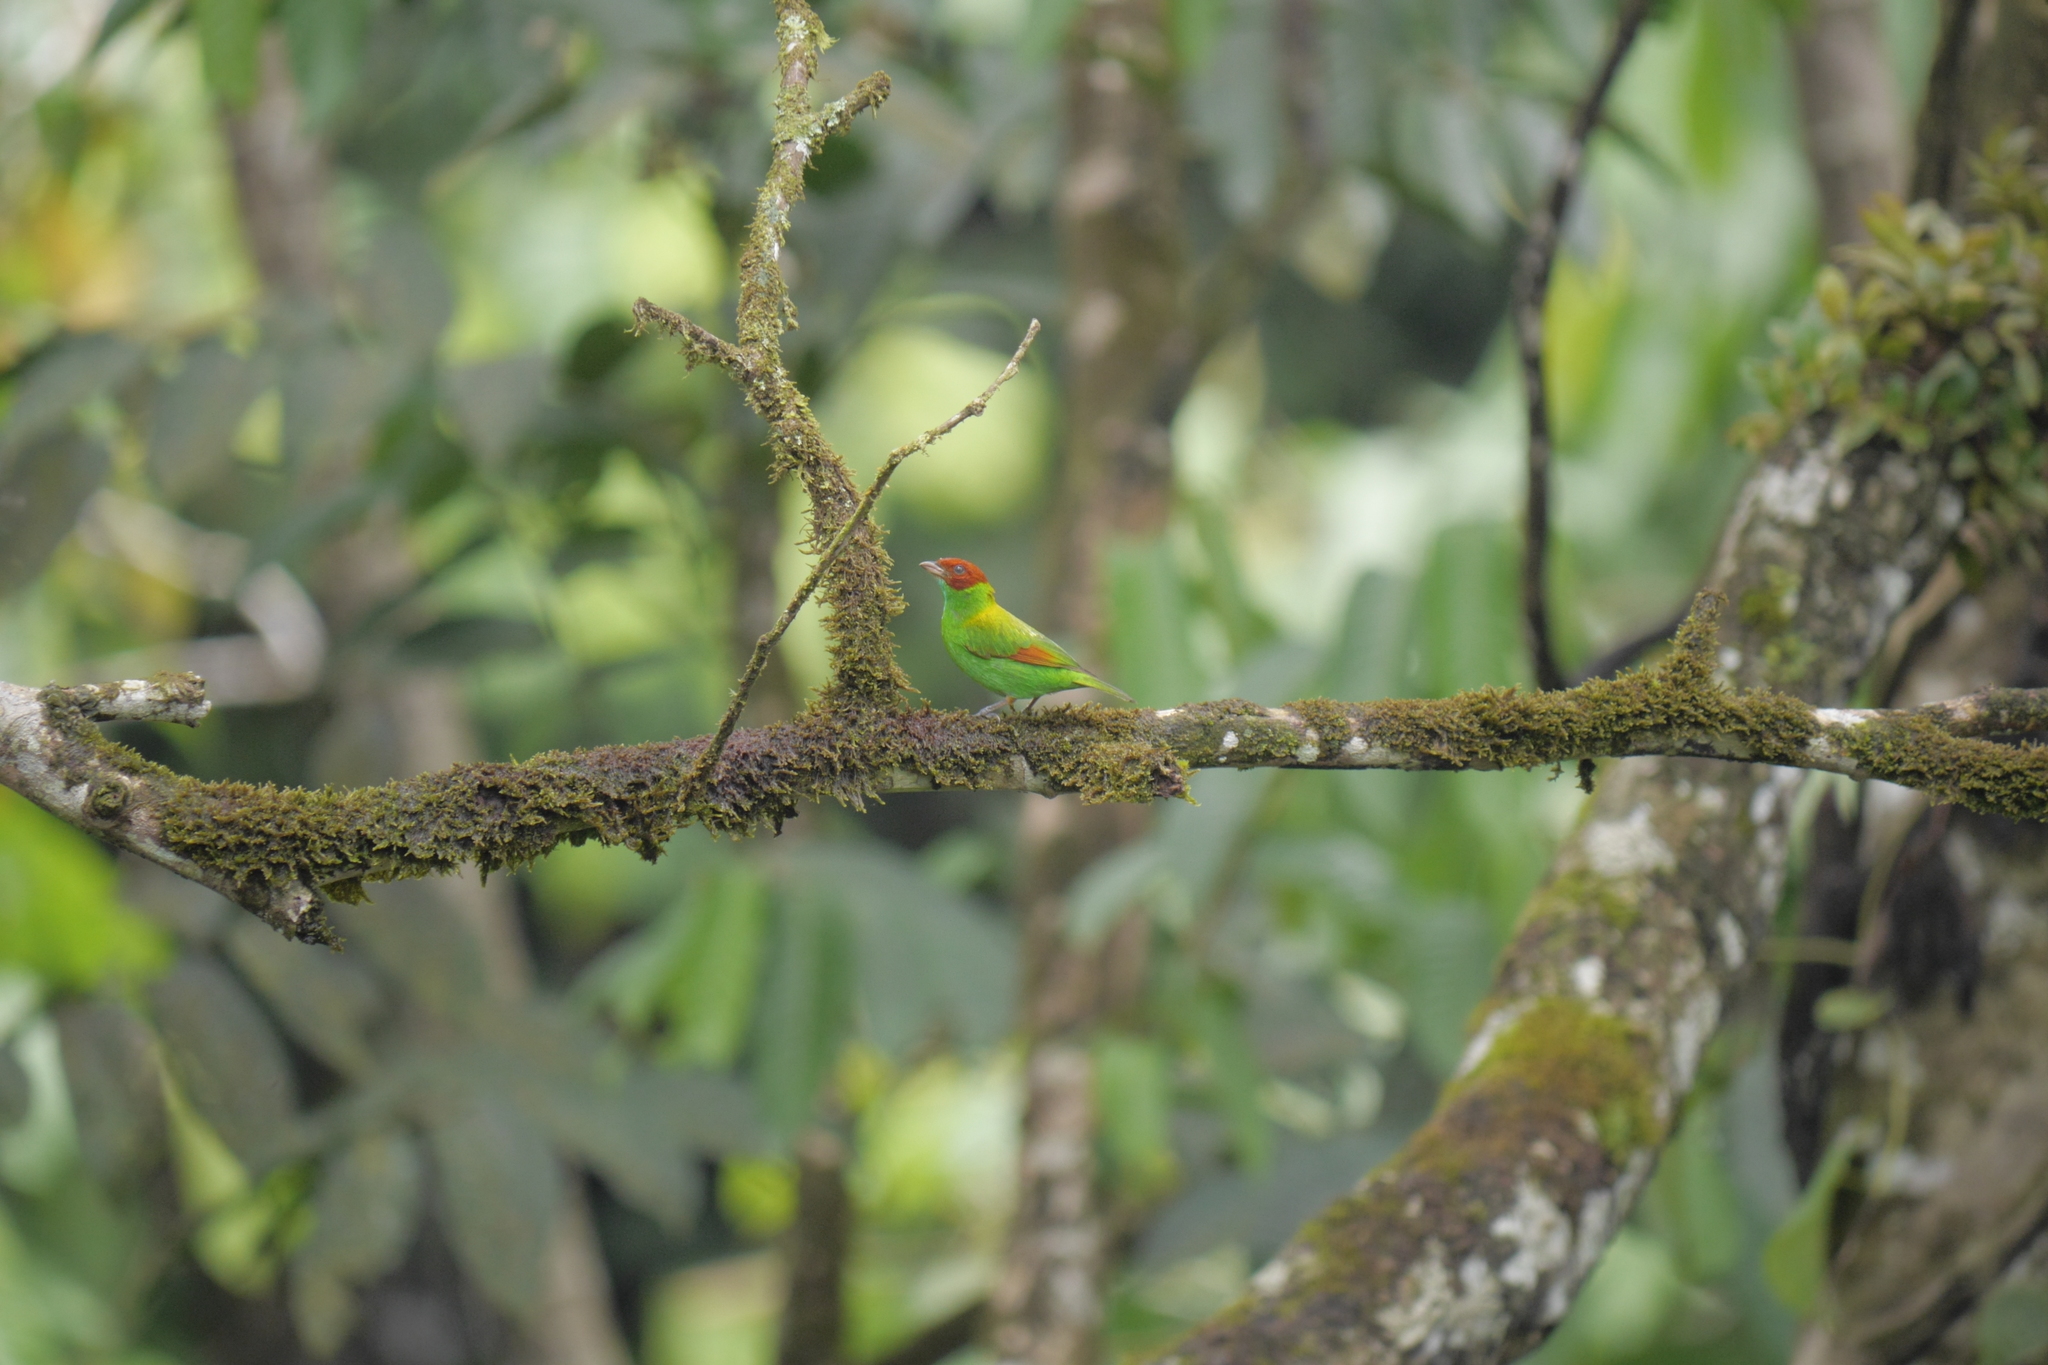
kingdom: Animalia
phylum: Chordata
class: Aves
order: Passeriformes
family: Thraupidae
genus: Tangara
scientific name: Tangara lavinia
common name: Rufous-winged tanager
